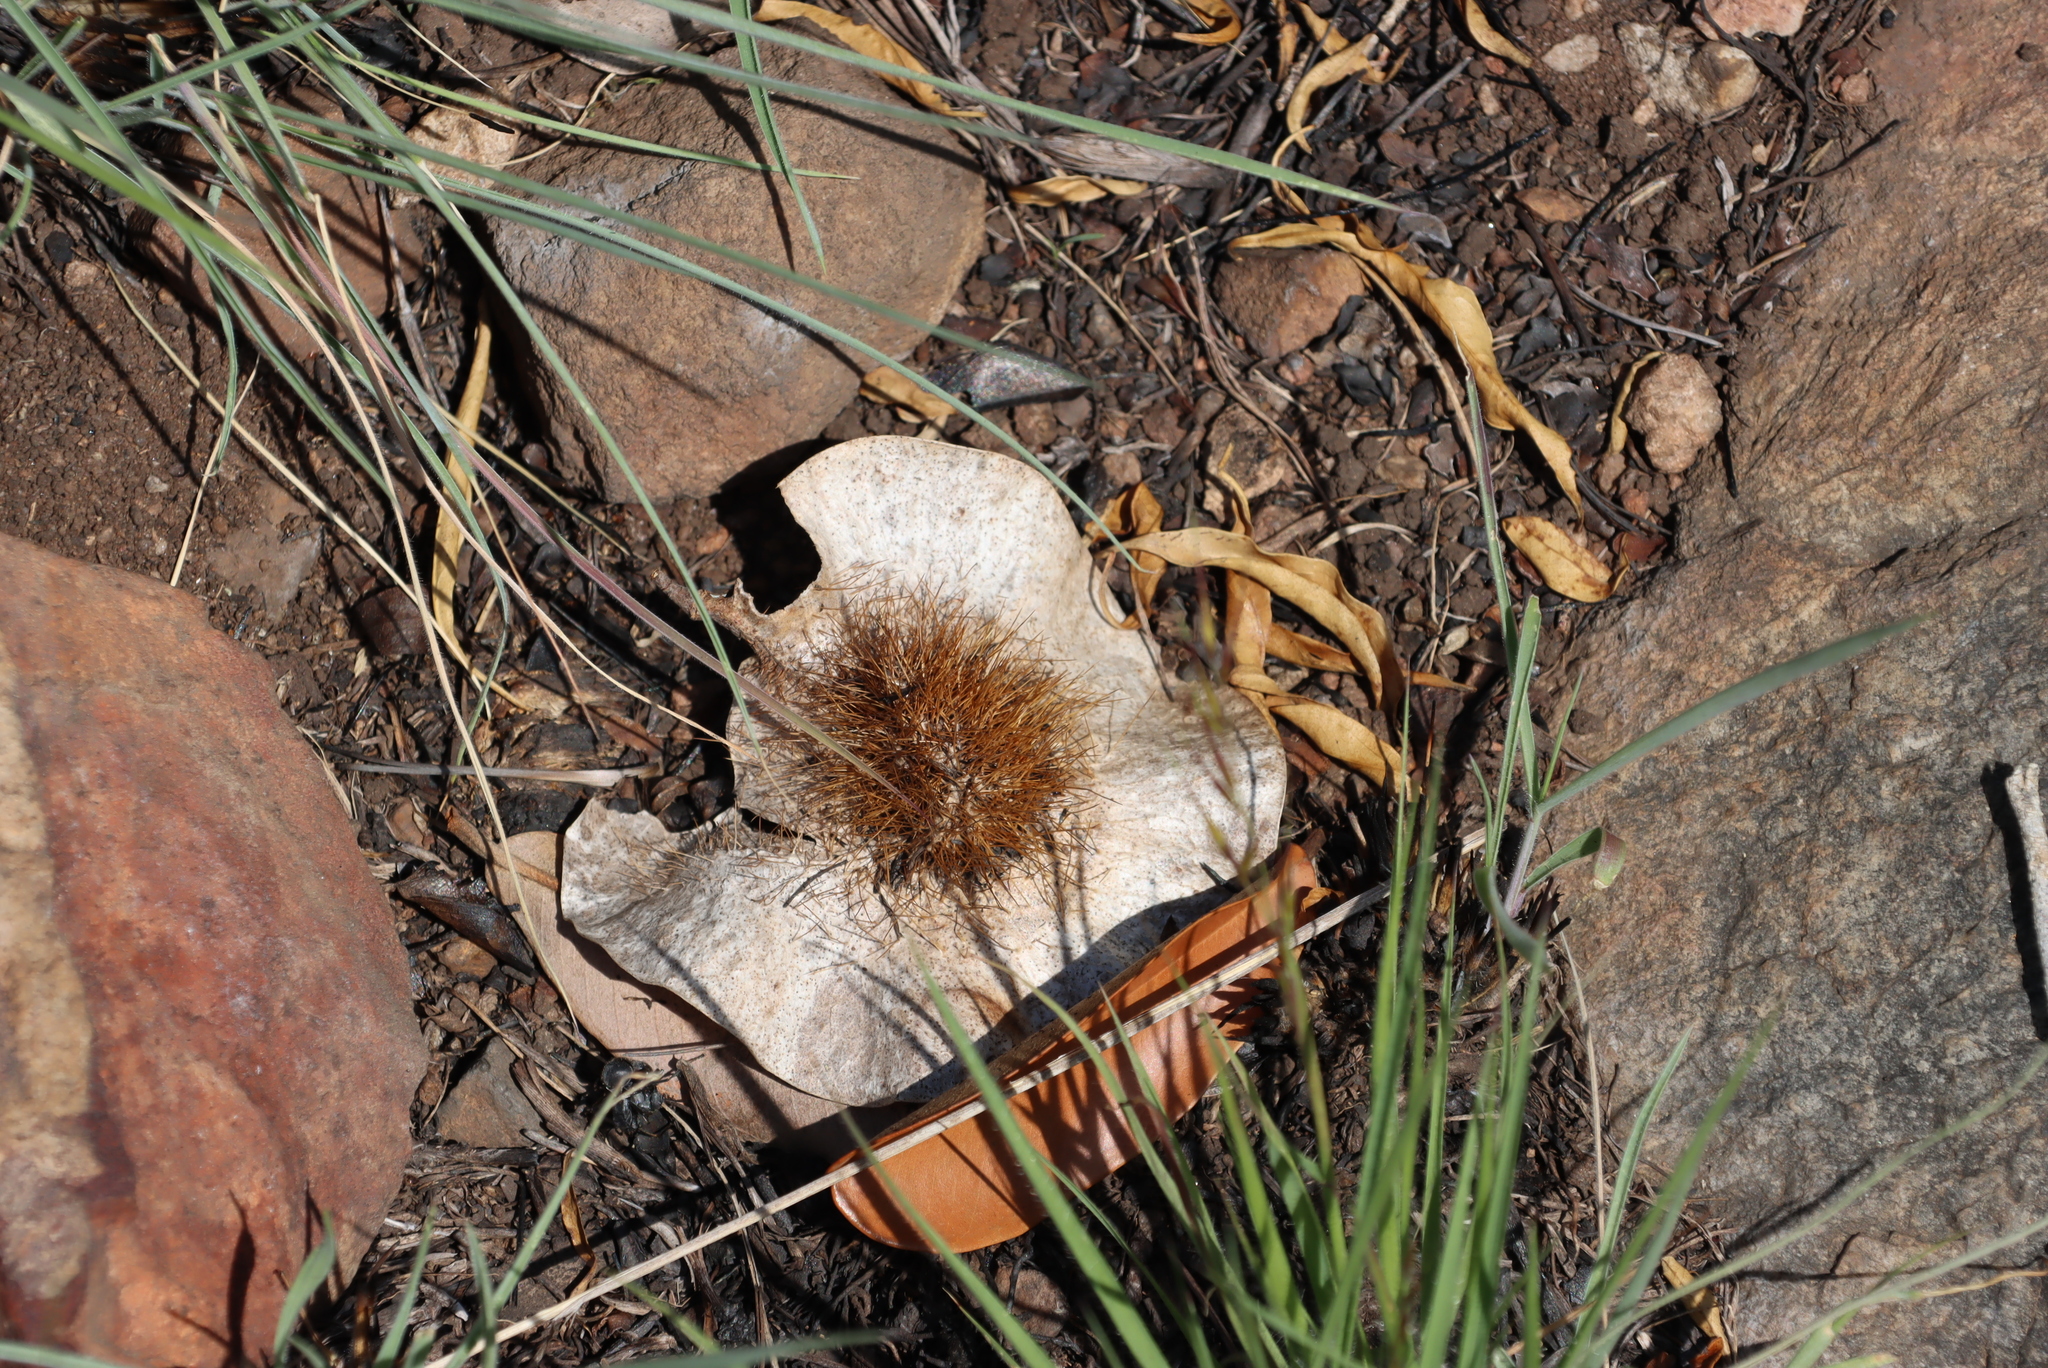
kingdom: Plantae
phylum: Tracheophyta
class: Magnoliopsida
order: Fabales
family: Fabaceae
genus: Pterocarpus
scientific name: Pterocarpus angolensis
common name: Bloodwood tree
